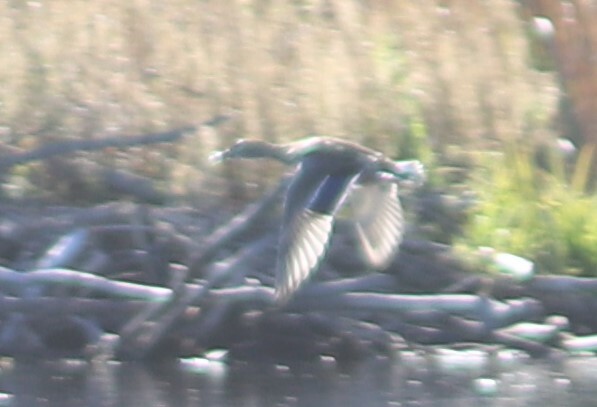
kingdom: Animalia
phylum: Chordata
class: Aves
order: Anseriformes
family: Anatidae
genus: Anas
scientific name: Anas platyrhynchos
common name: Mallard
